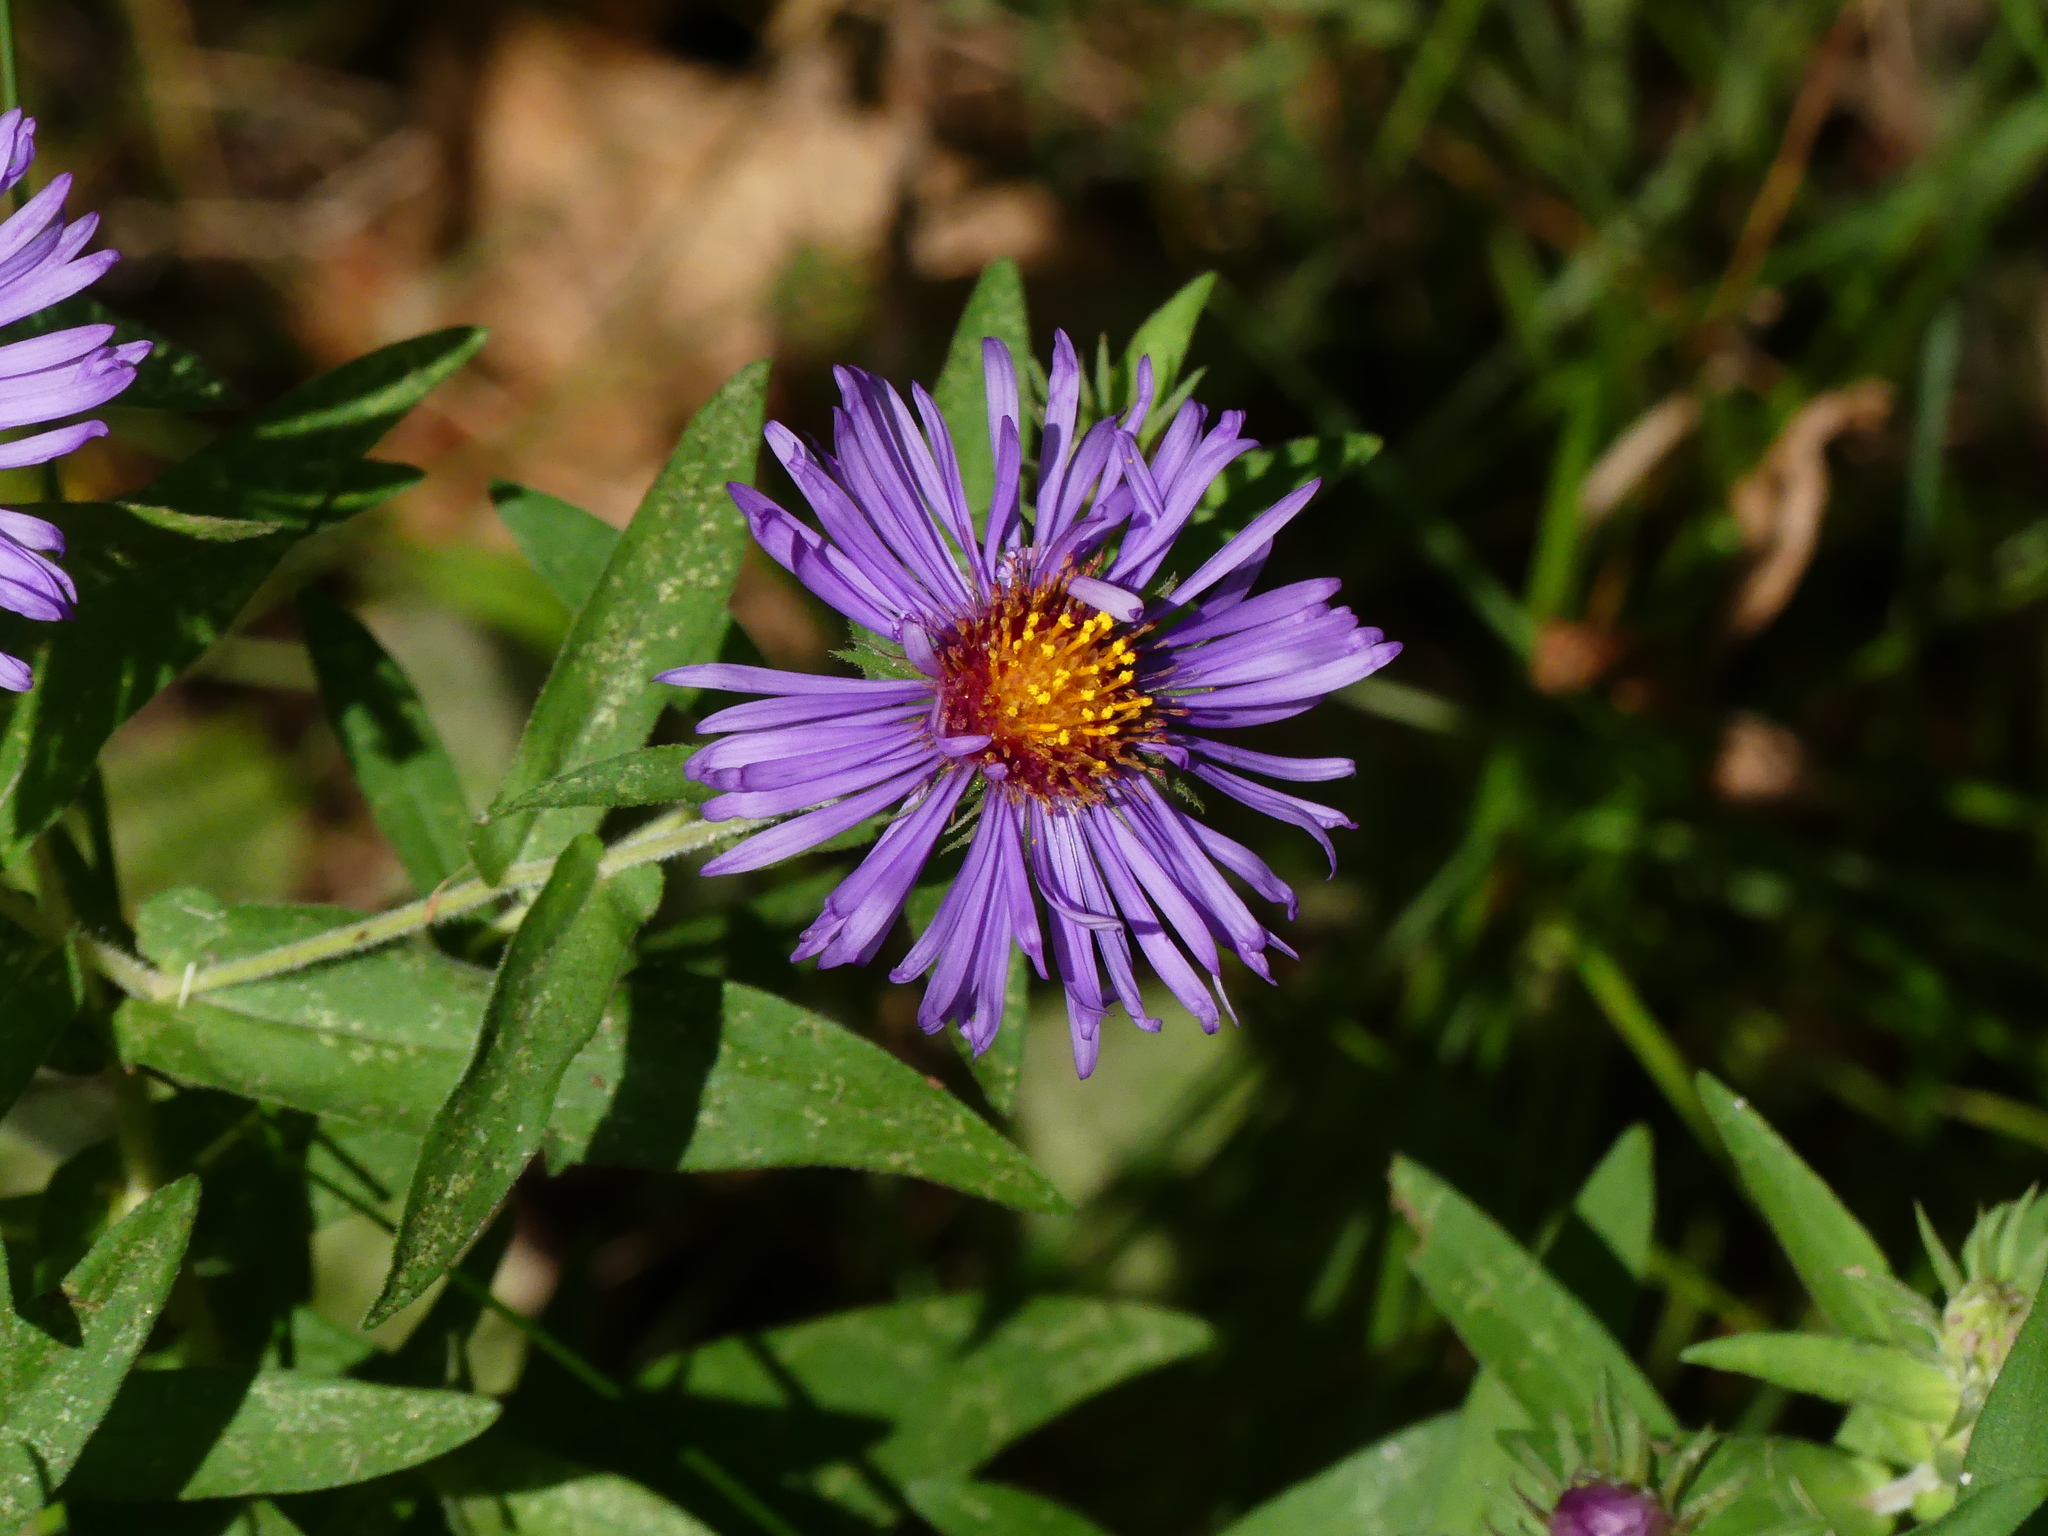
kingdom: Plantae
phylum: Tracheophyta
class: Magnoliopsida
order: Asterales
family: Asteraceae
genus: Symphyotrichum
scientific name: Symphyotrichum novae-angliae
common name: Michaelmas daisy
